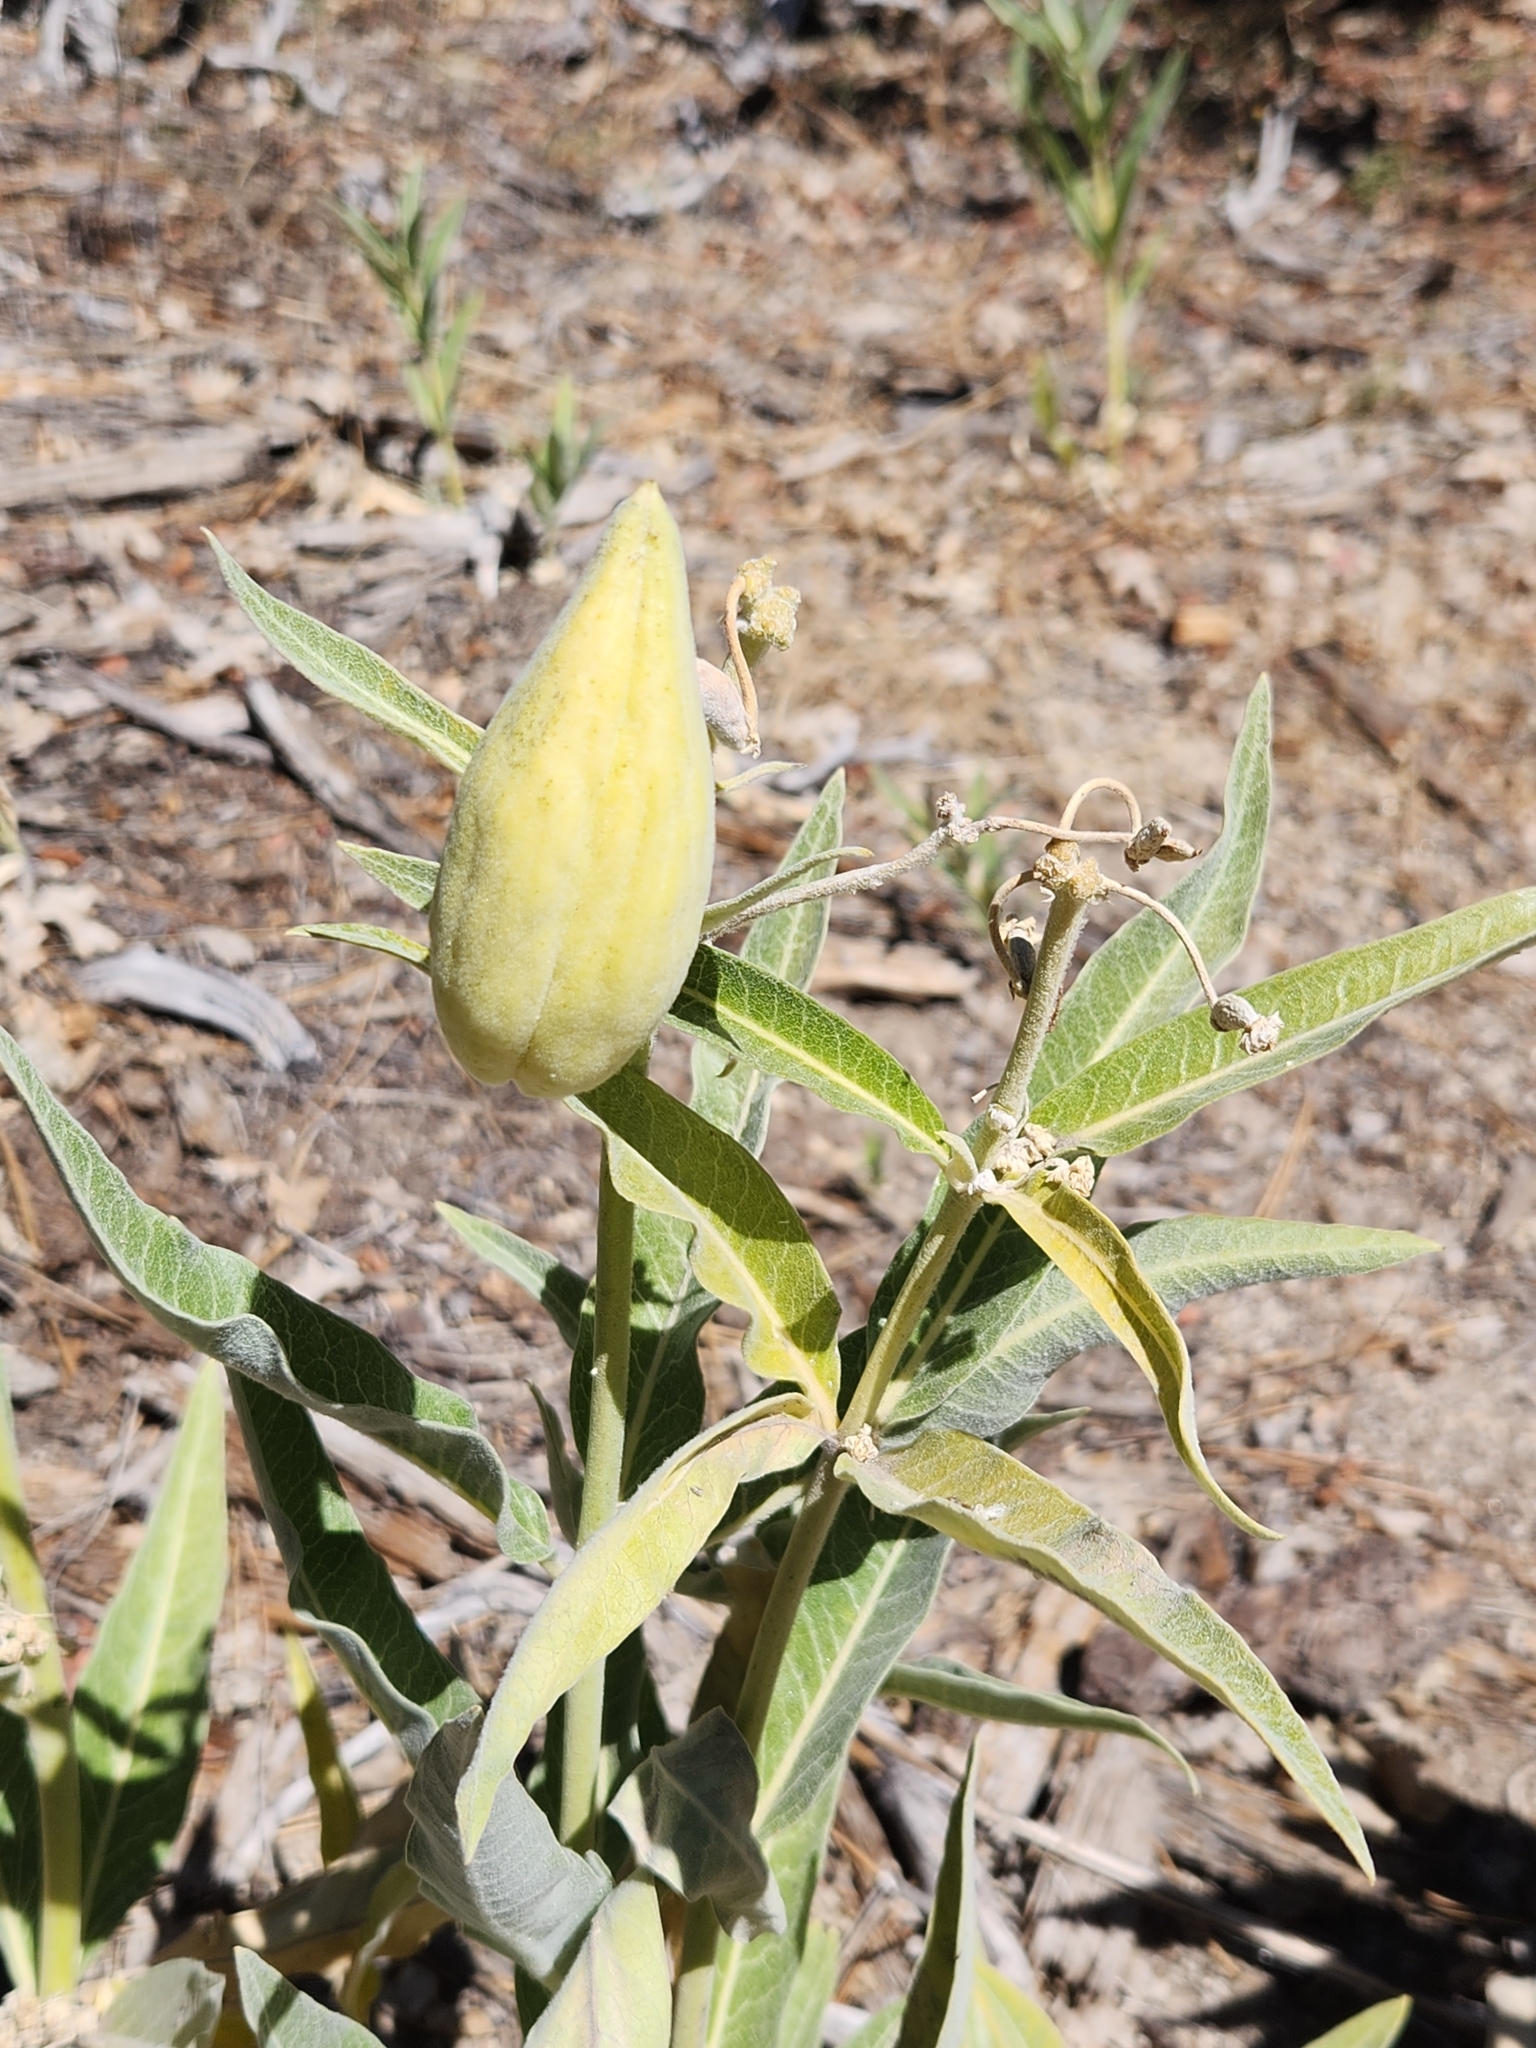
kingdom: Plantae
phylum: Tracheophyta
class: Magnoliopsida
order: Gentianales
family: Apocynaceae
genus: Asclepias
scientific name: Asclepias eriocarpa
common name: Indian milkweed
